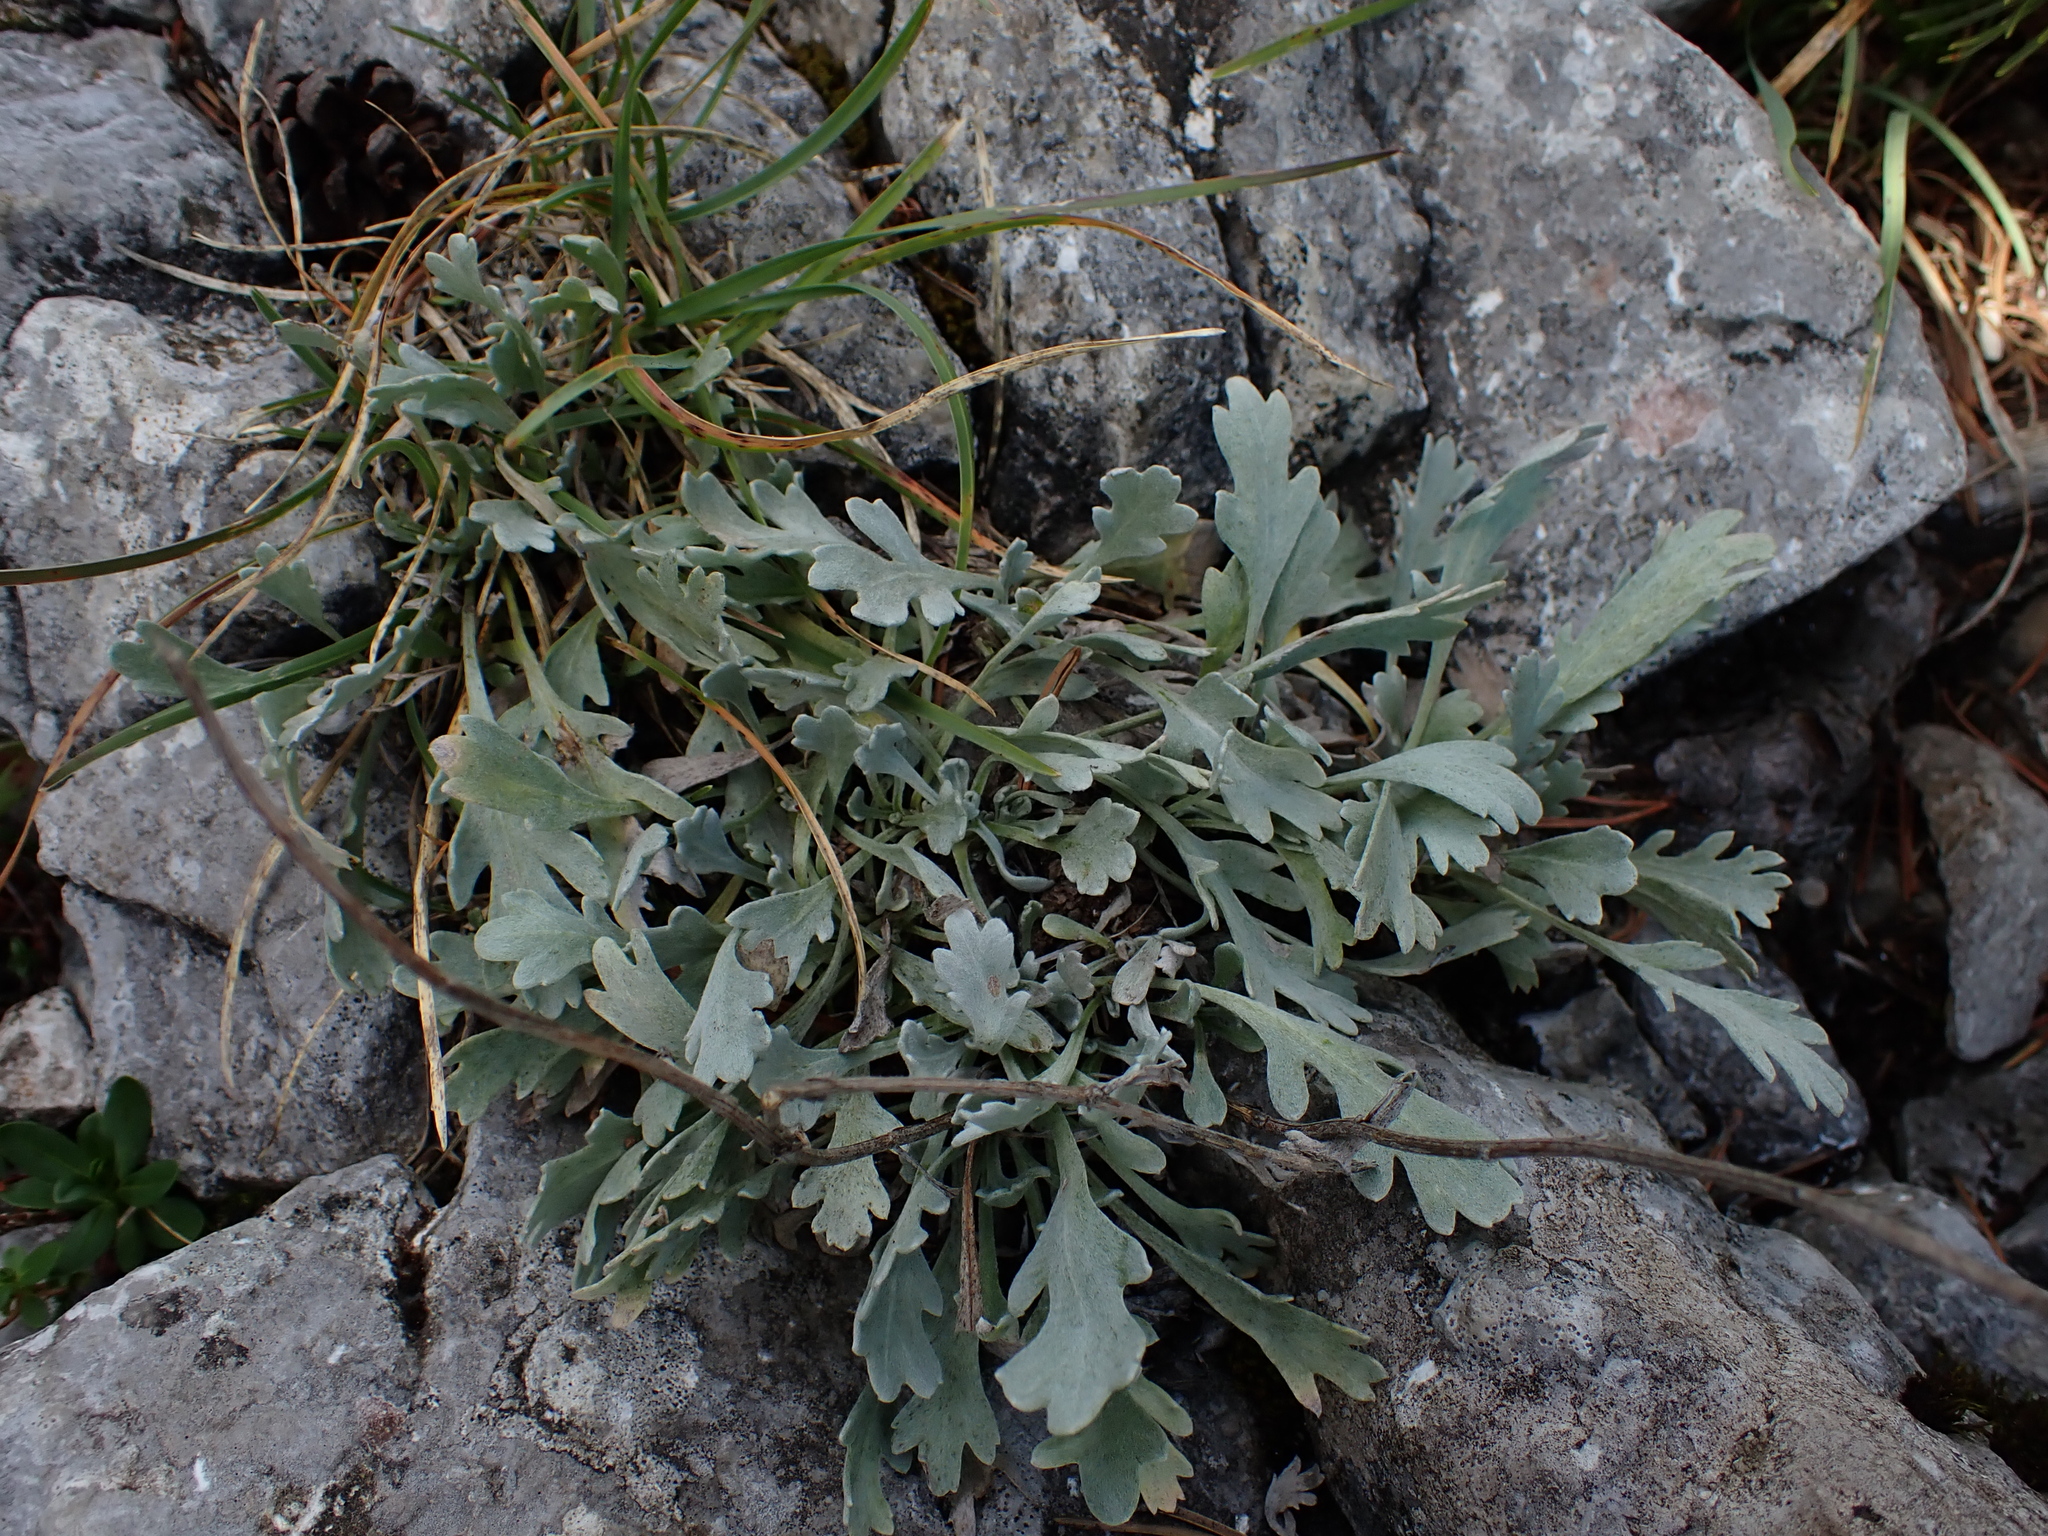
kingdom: Plantae
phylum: Tracheophyta
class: Magnoliopsida
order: Asterales
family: Asteraceae
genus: Achillea
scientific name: Achillea clavennae
